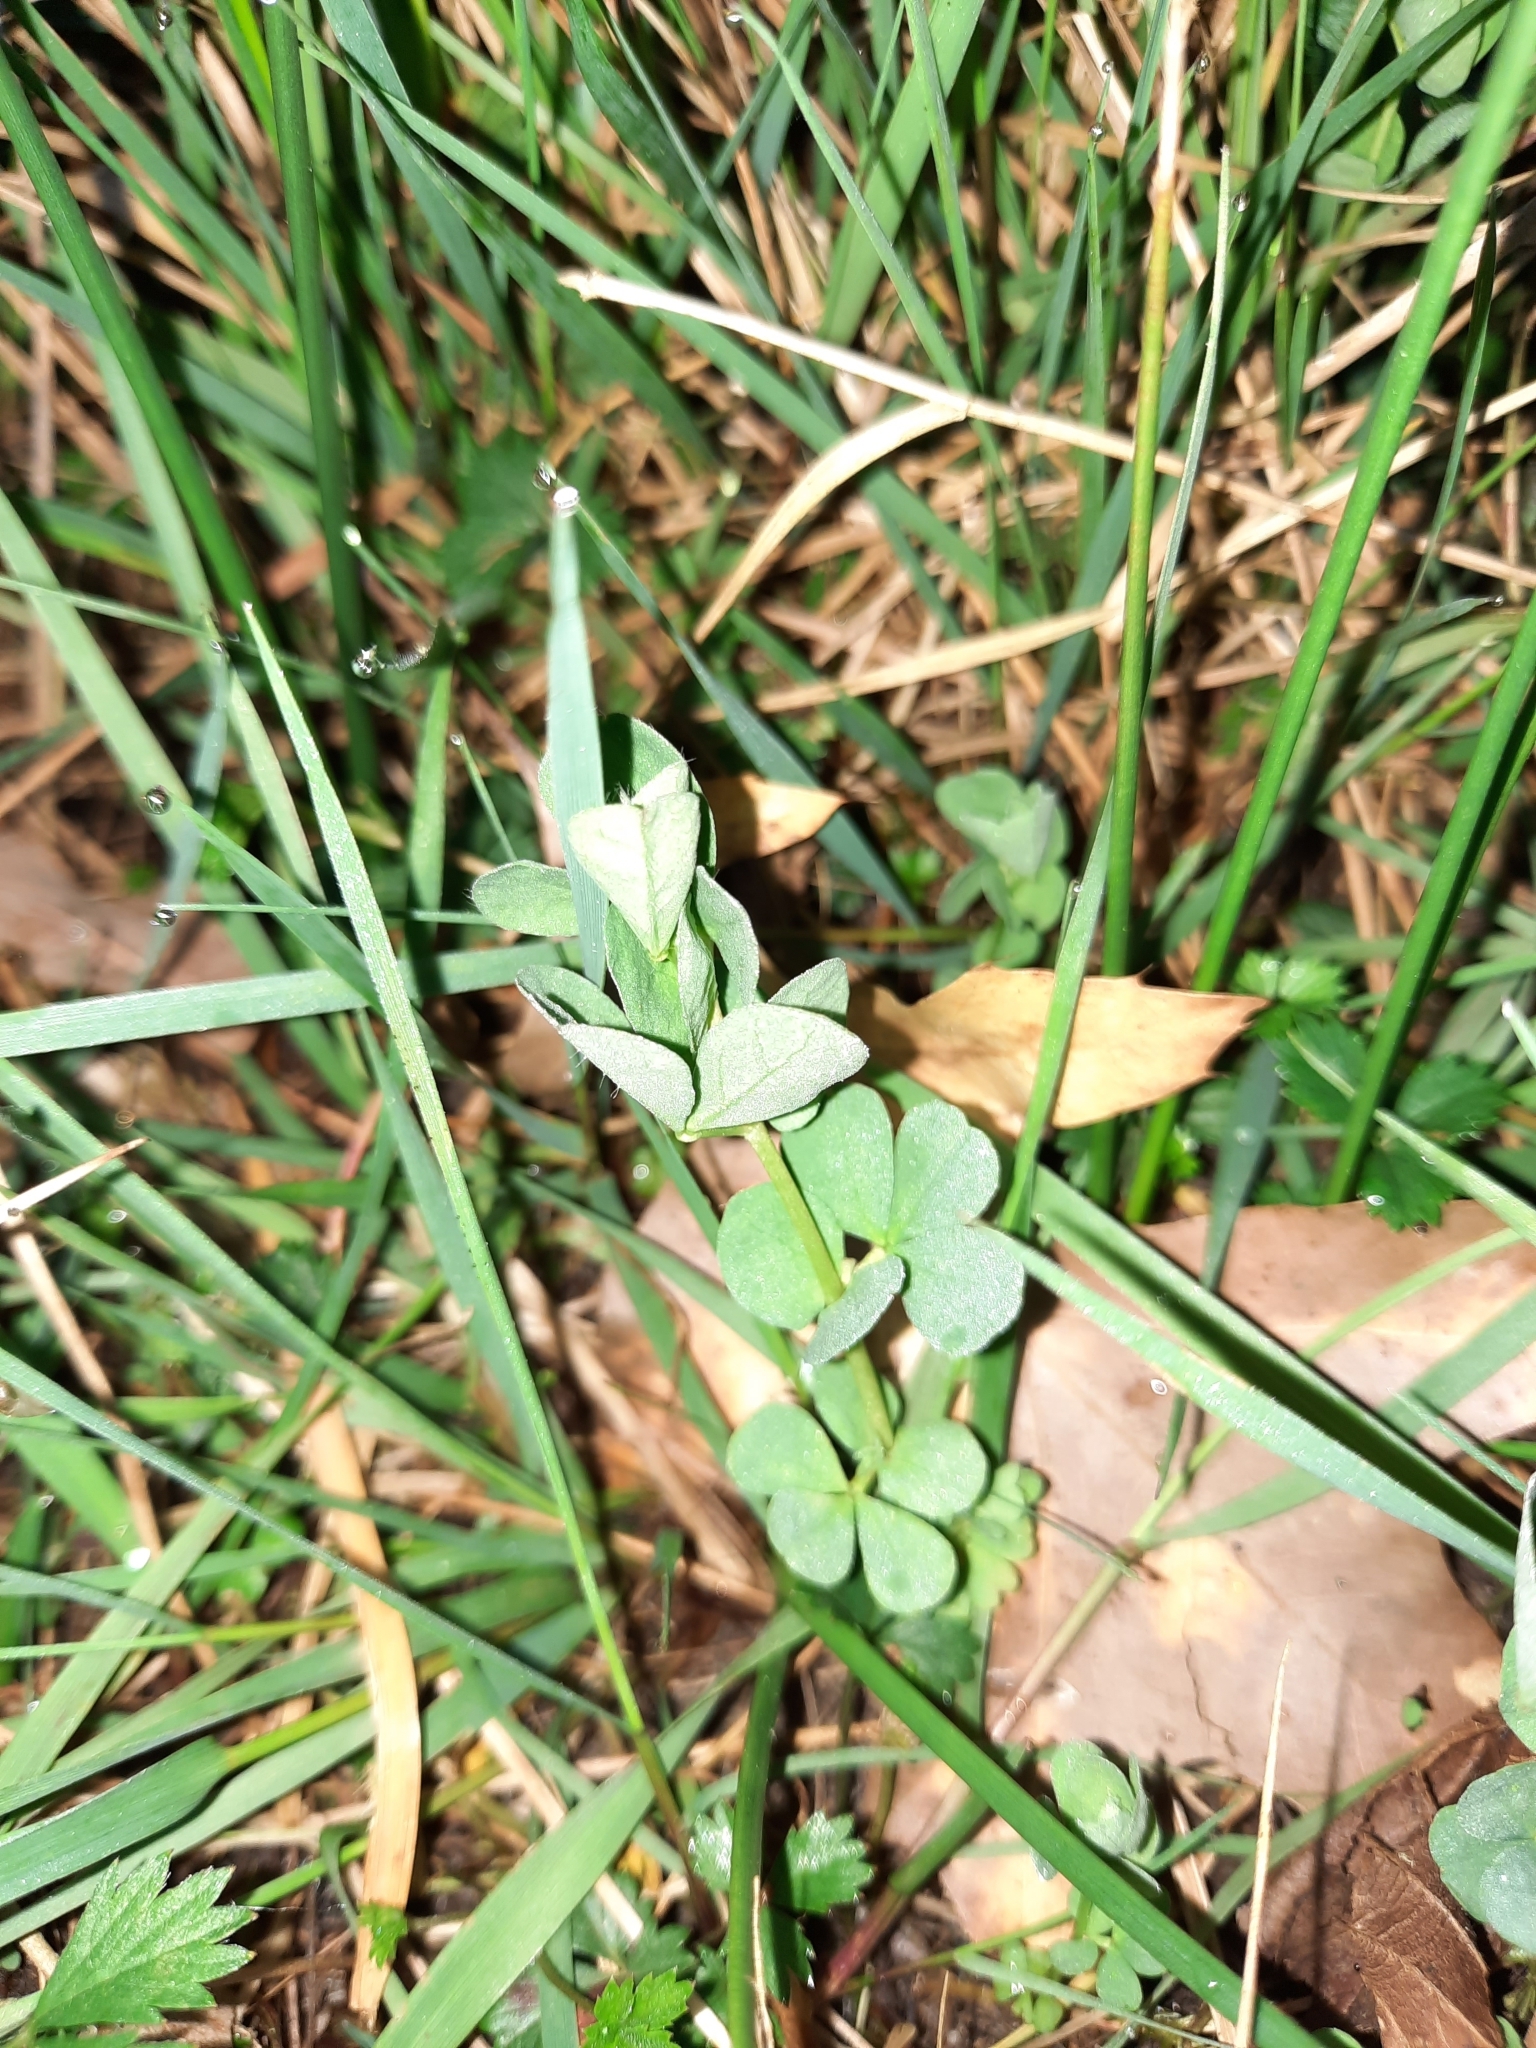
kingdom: Plantae
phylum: Tracheophyta
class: Magnoliopsida
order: Fabales
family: Fabaceae
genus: Lotus
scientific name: Lotus pedunculatus
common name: Greater birdsfoot-trefoil
